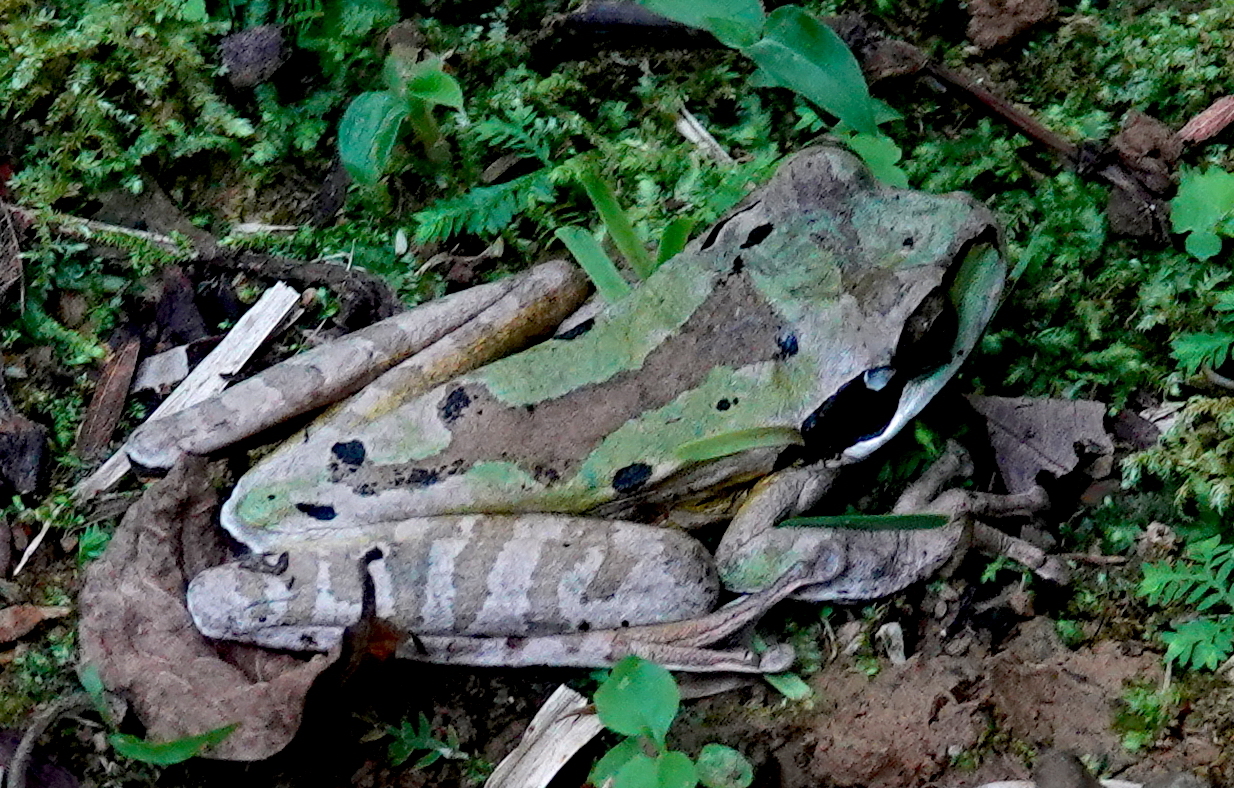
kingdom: Animalia
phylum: Chordata
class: Amphibia
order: Anura
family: Hylidae
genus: Smilisca
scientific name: Smilisca phaeota
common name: Central american smilisca
